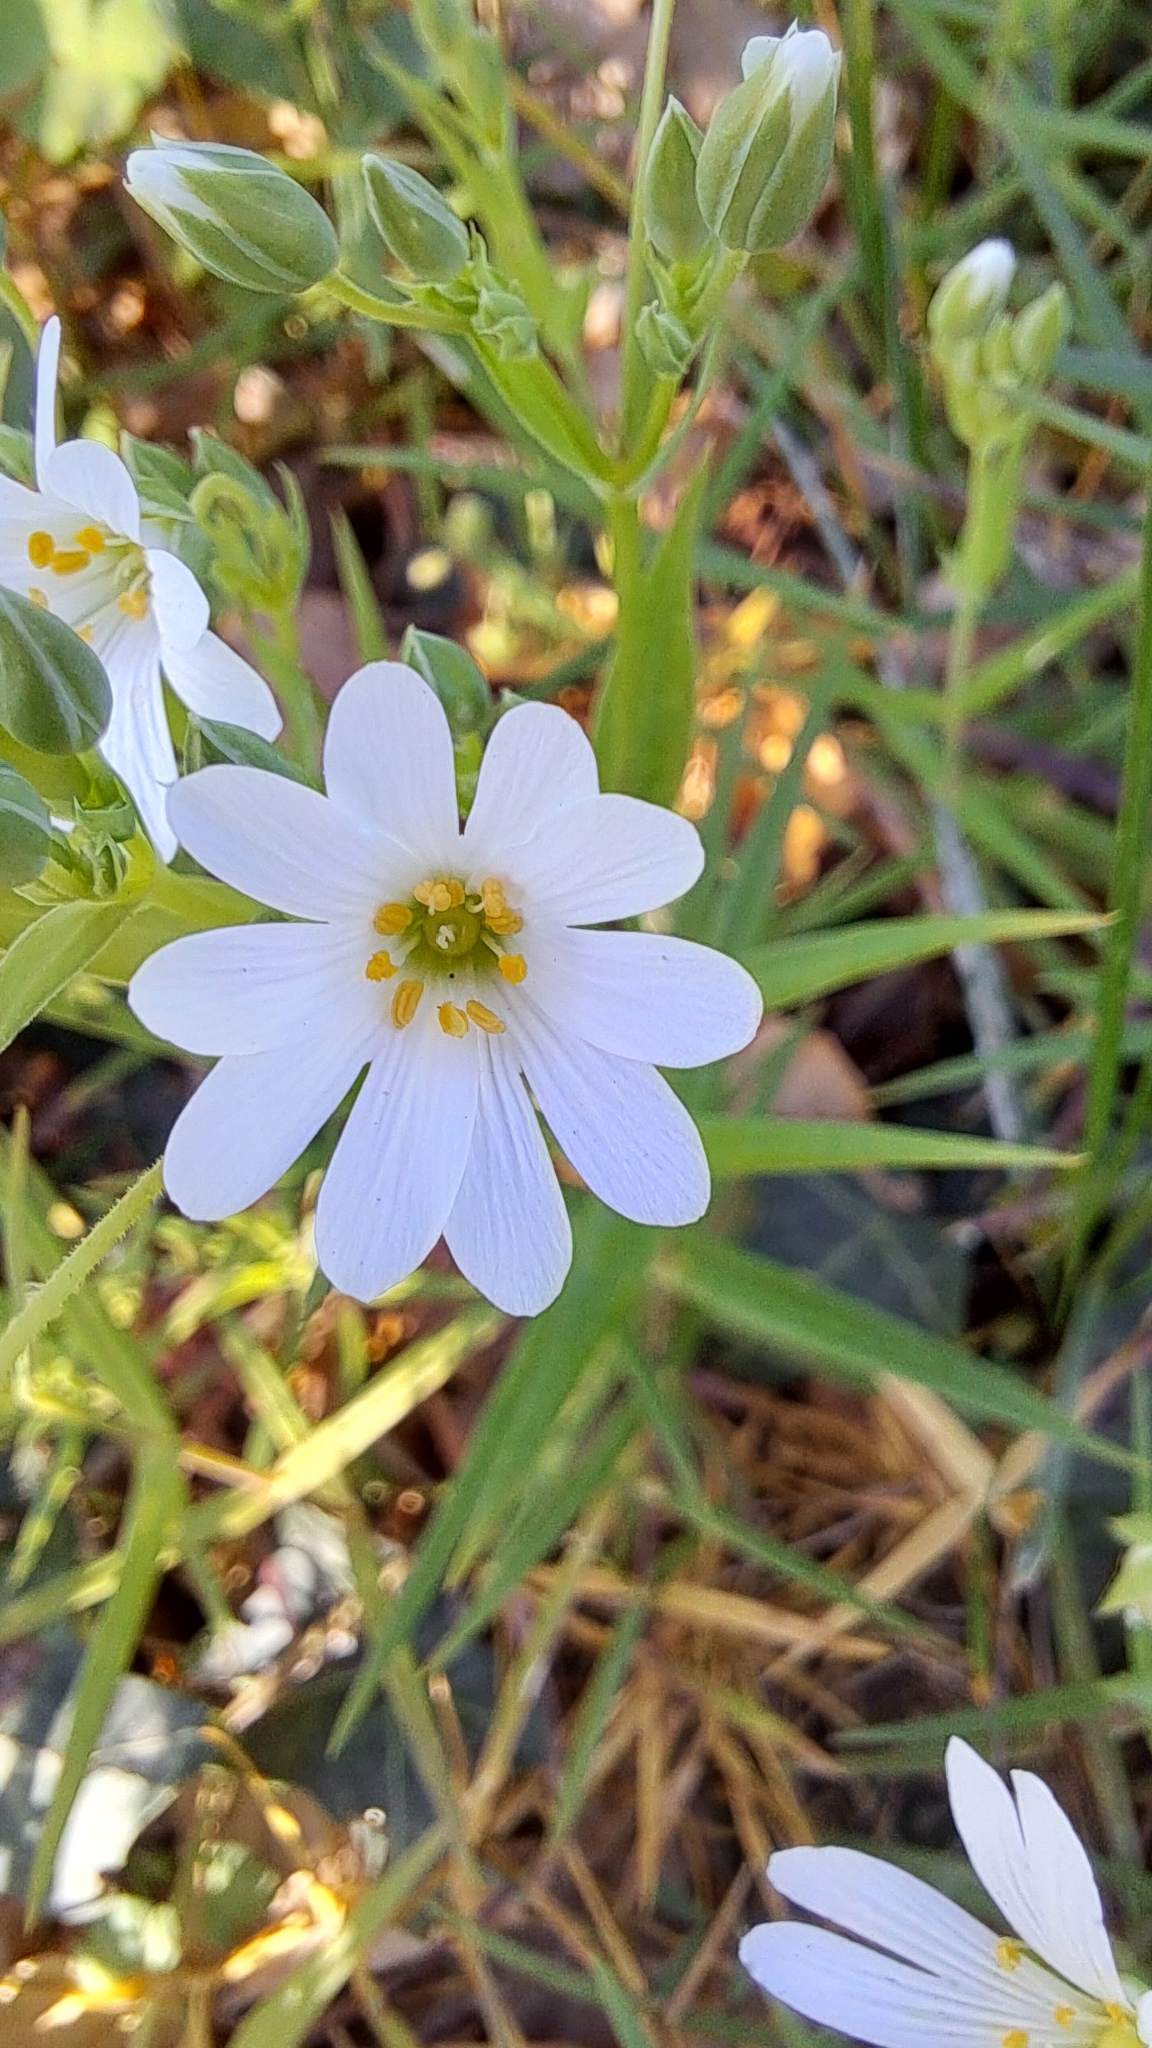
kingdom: Plantae
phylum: Tracheophyta
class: Magnoliopsida
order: Caryophyllales
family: Caryophyllaceae
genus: Rabelera
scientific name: Rabelera holostea
